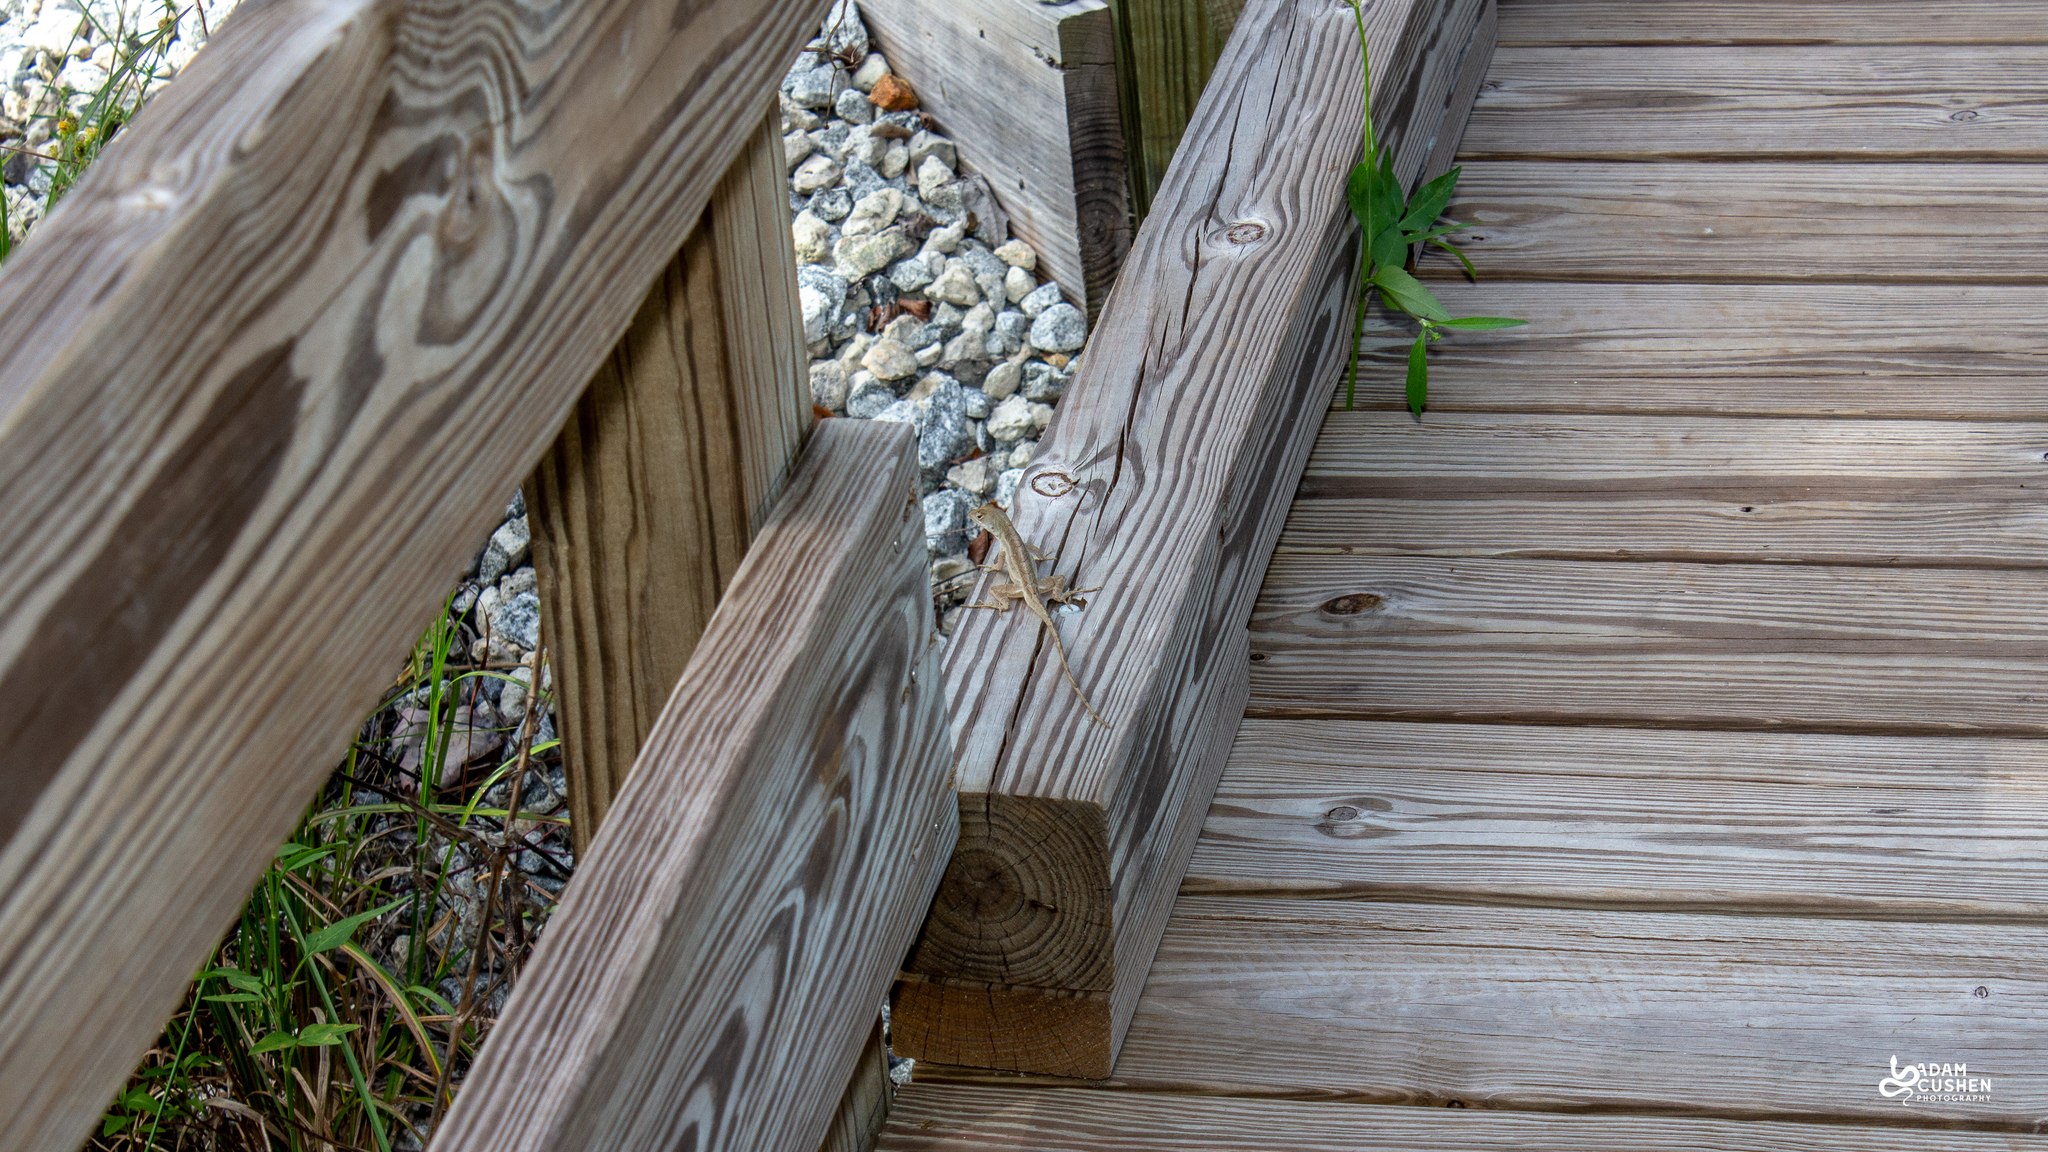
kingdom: Animalia
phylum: Chordata
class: Squamata
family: Dactyloidae
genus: Anolis
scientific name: Anolis sagrei
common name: Brown anole
